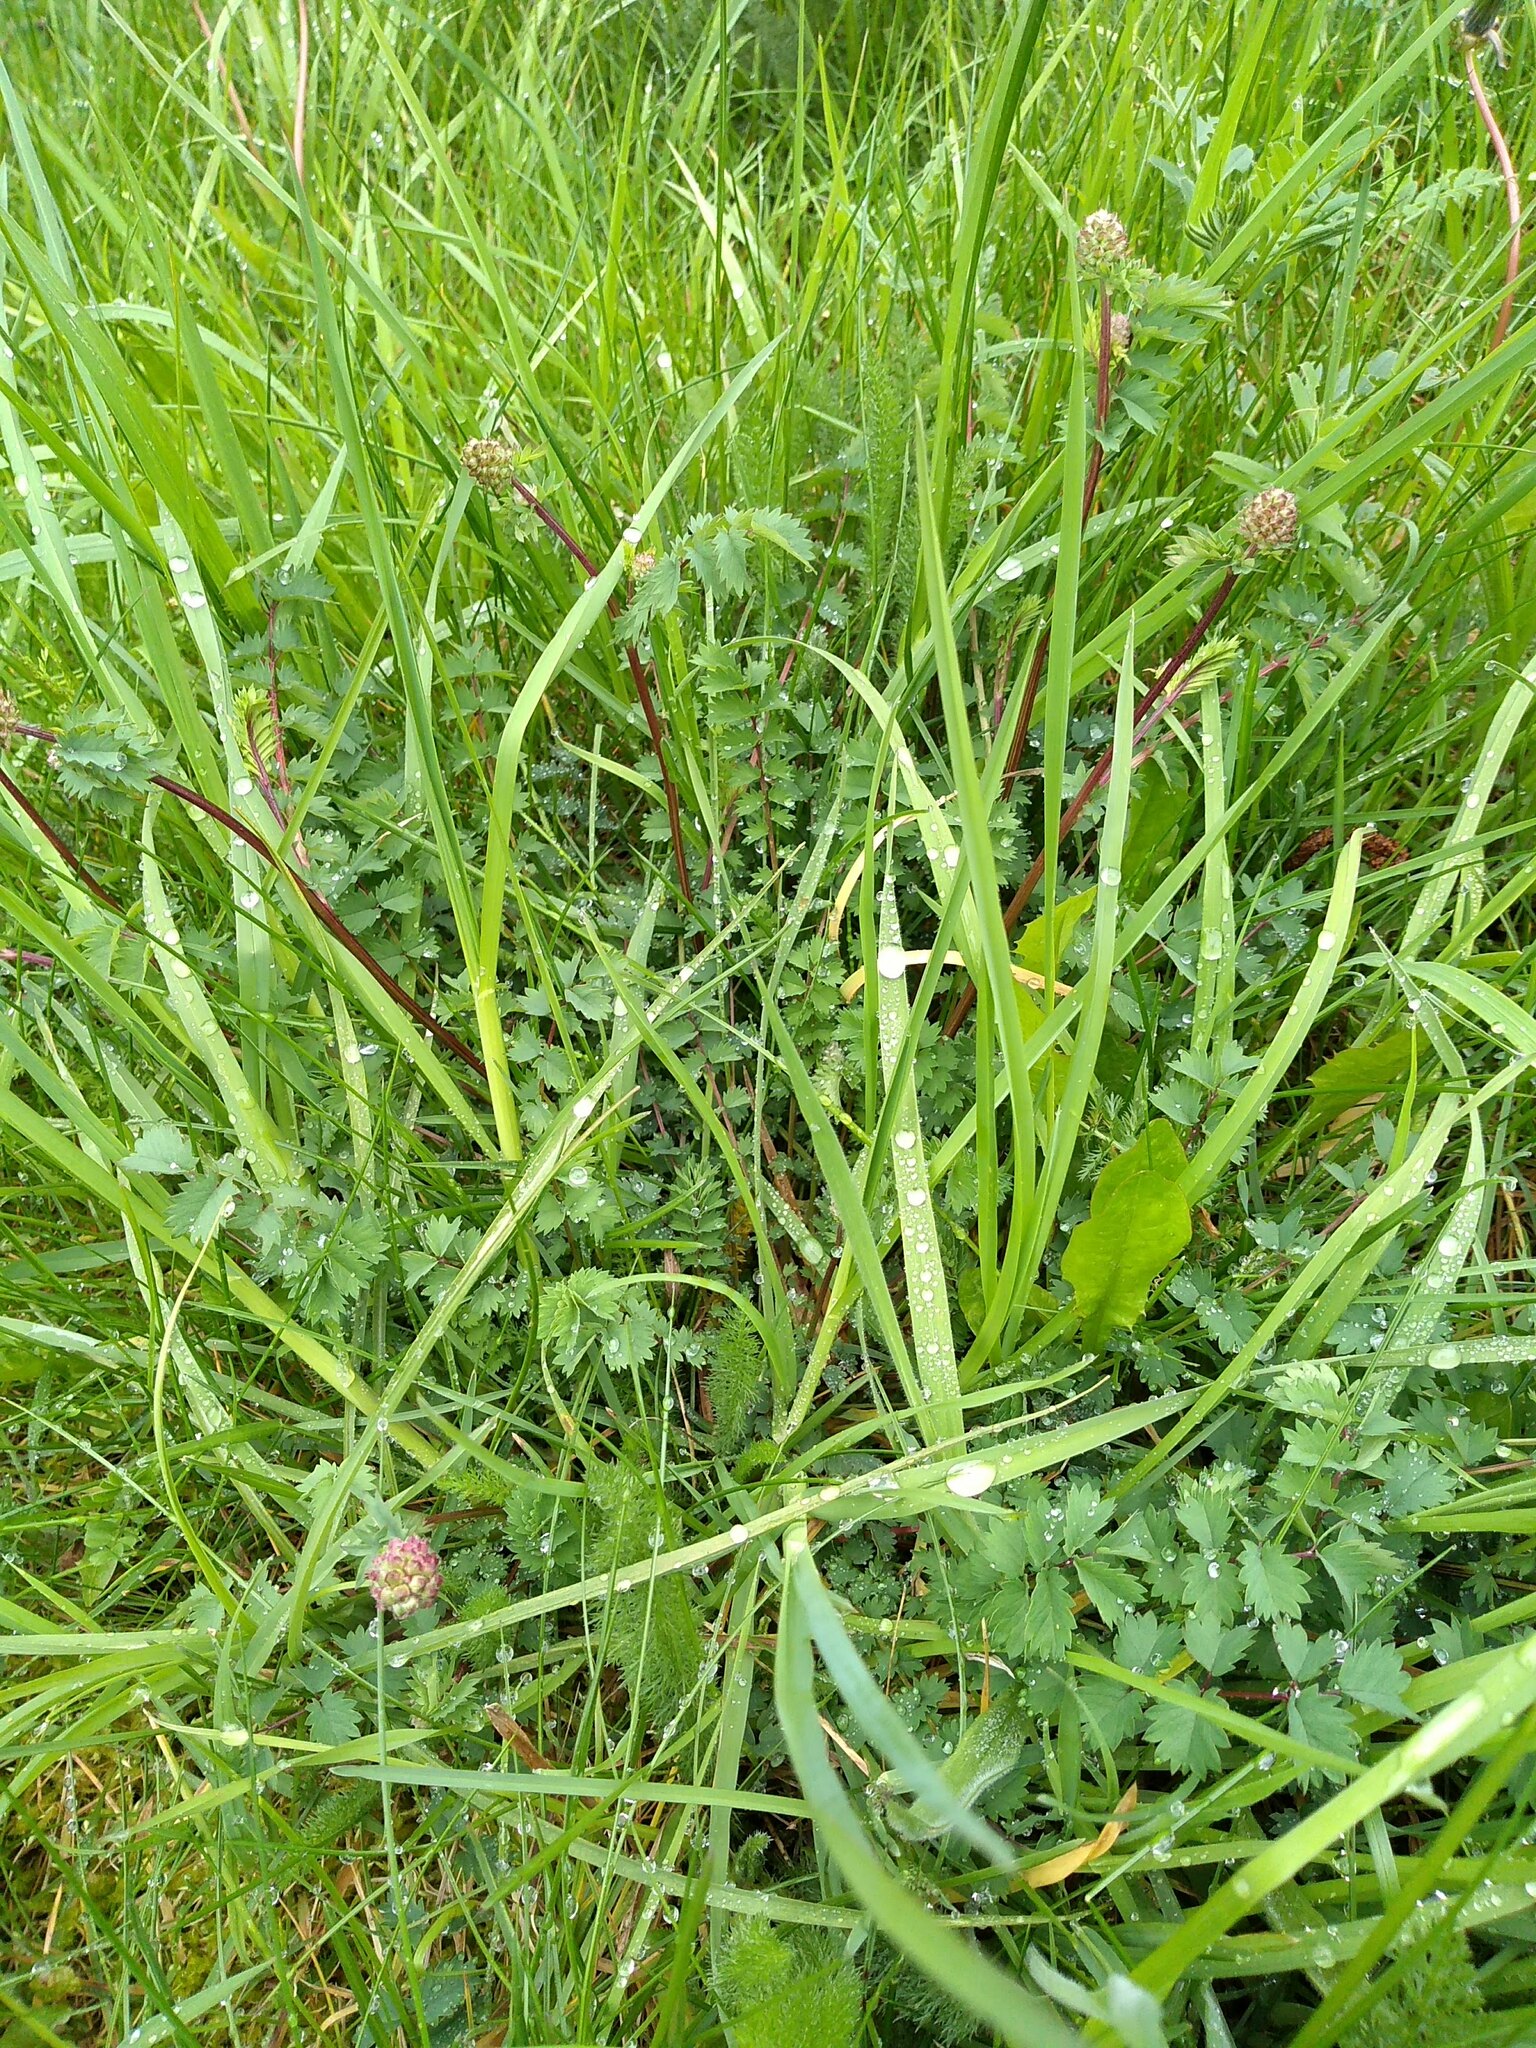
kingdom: Plantae
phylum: Tracheophyta
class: Magnoliopsida
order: Rosales
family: Rosaceae
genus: Poterium
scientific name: Poterium sanguisorba
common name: Salad burnet
